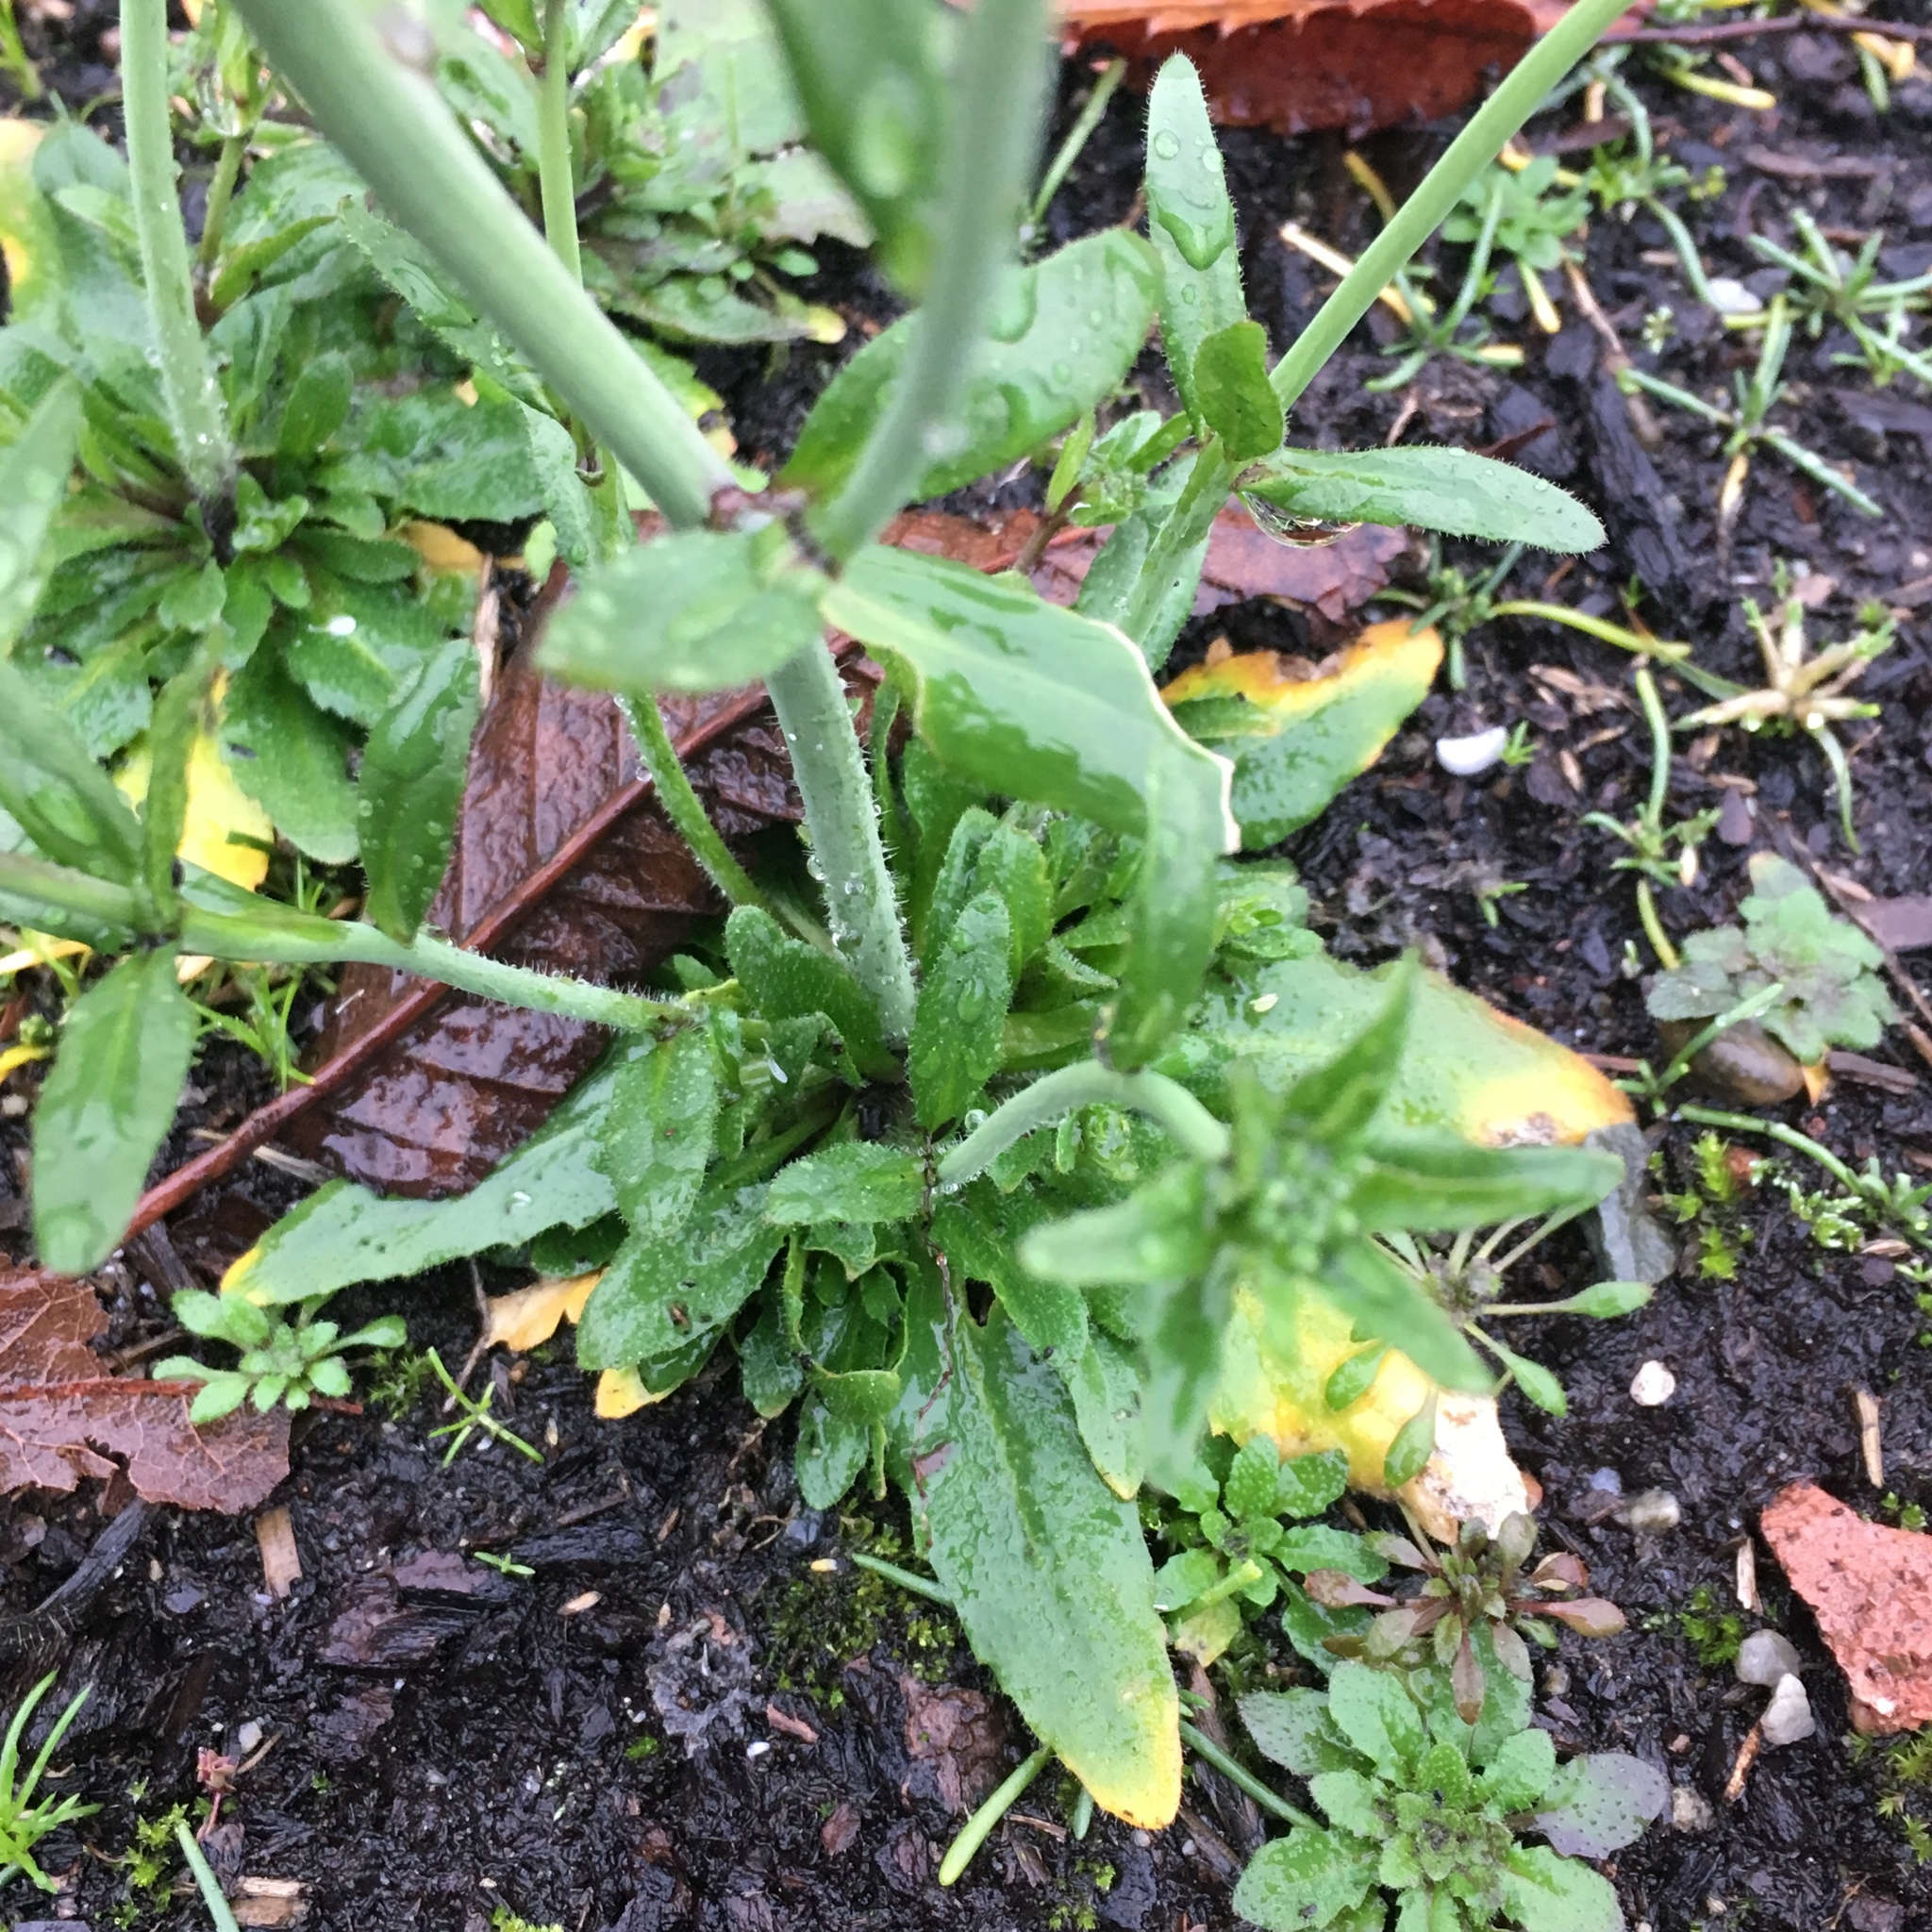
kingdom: Plantae
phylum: Tracheophyta
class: Magnoliopsida
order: Brassicales
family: Brassicaceae
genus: Arabidopsis
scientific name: Arabidopsis thaliana
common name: Thale cress
